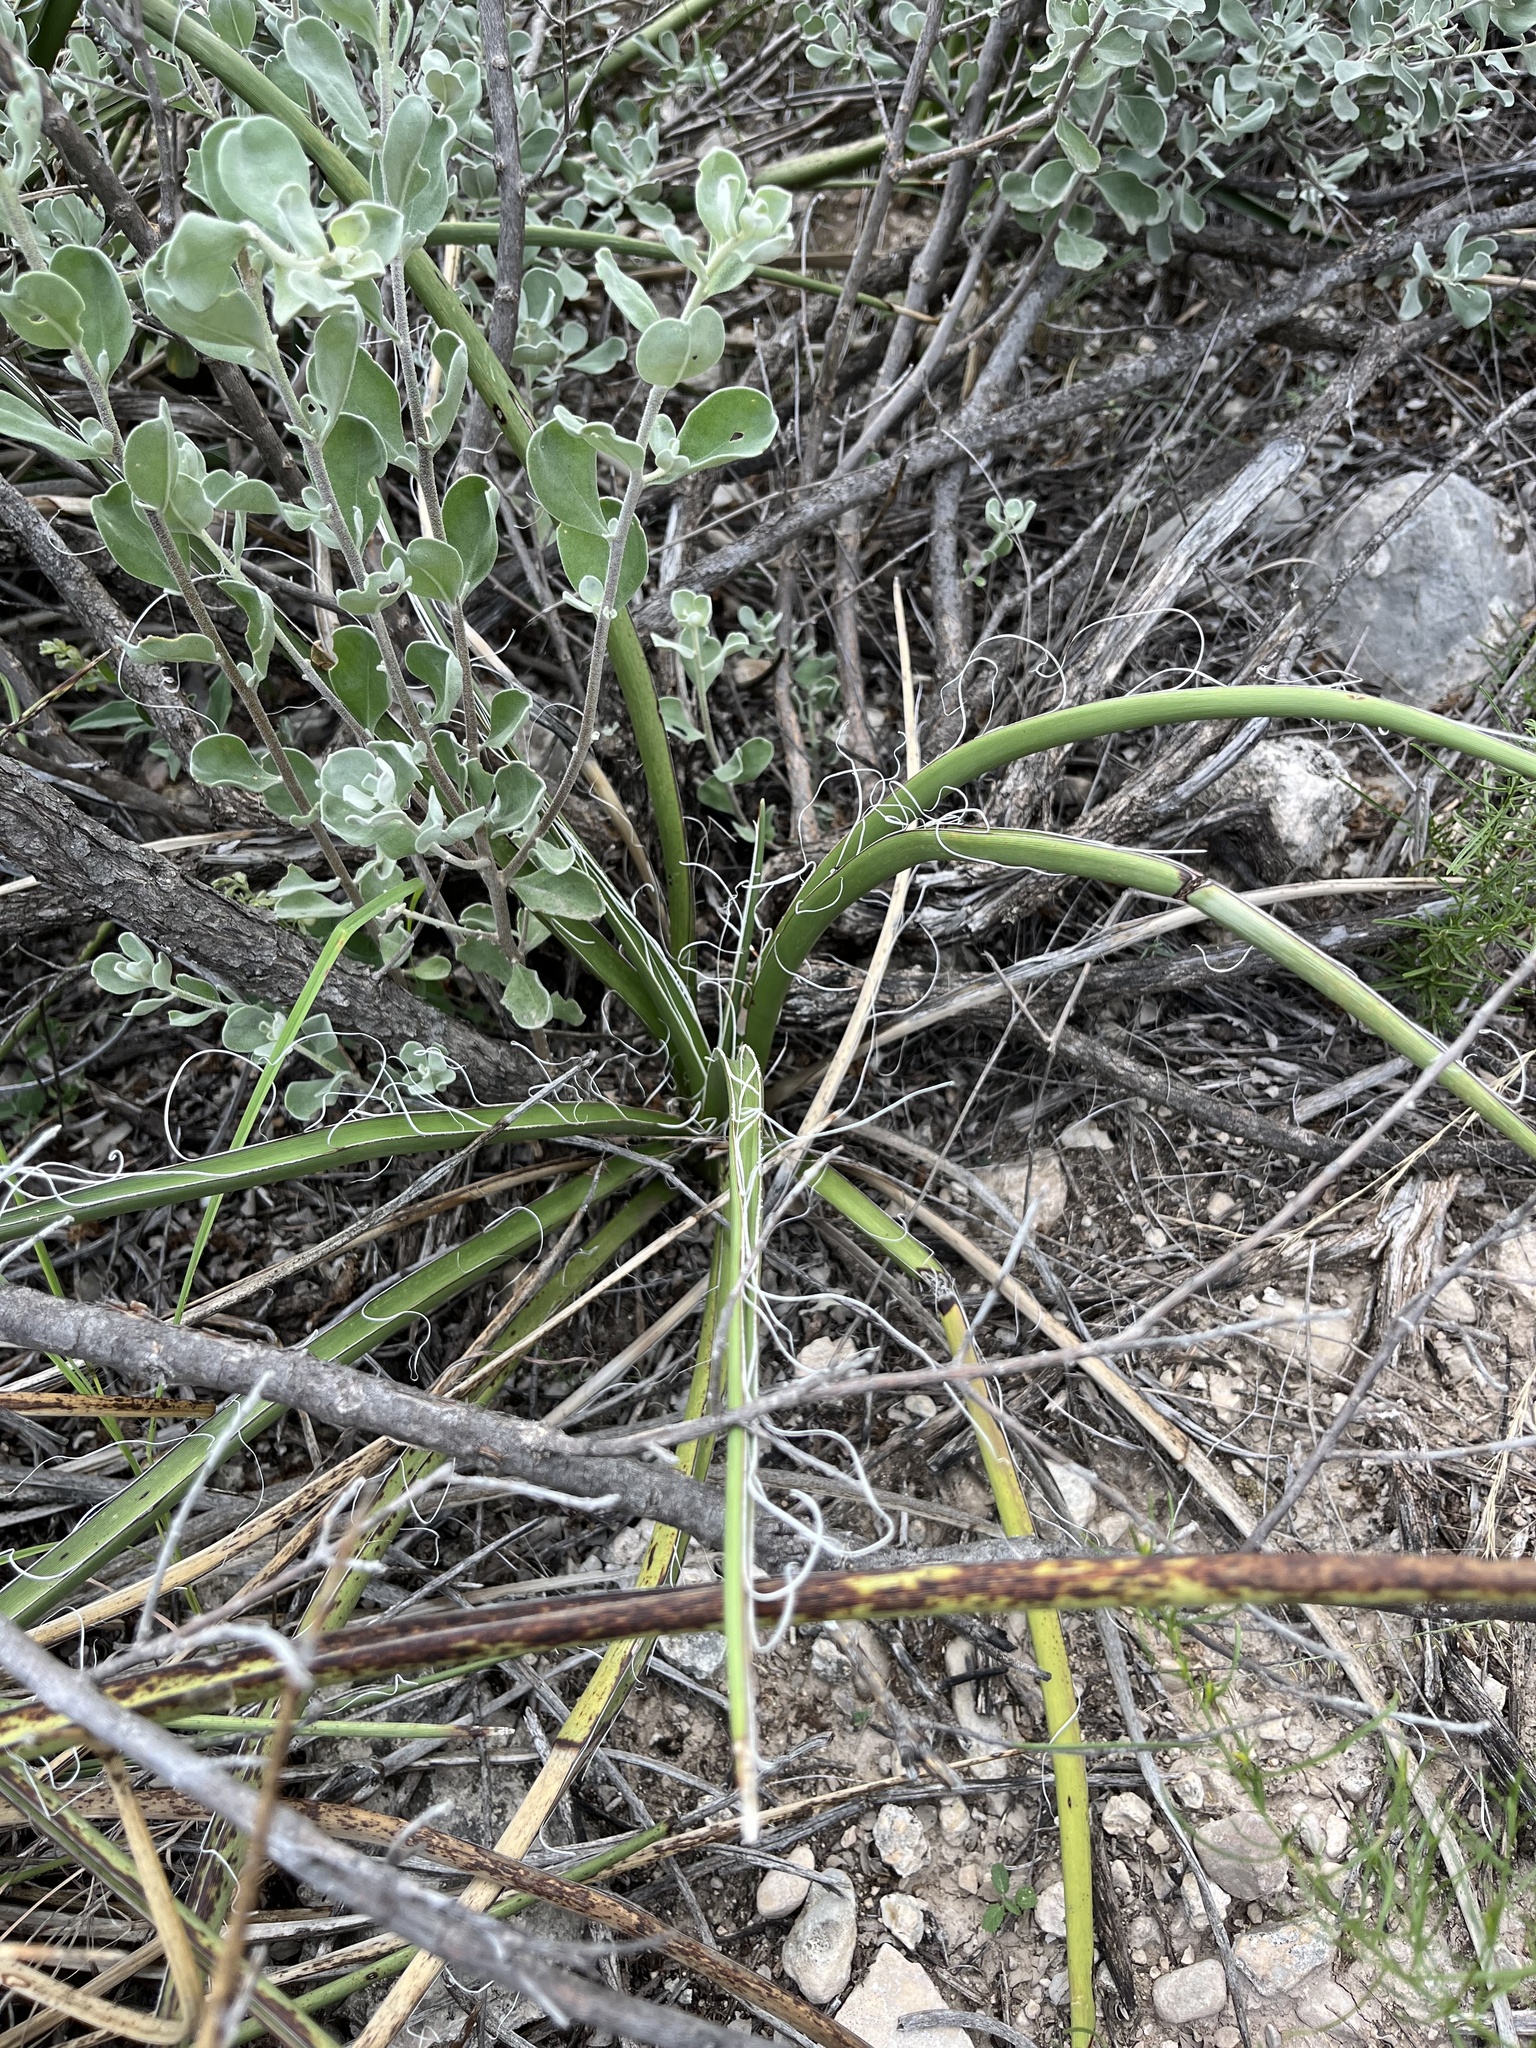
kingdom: Plantae
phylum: Tracheophyta
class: Liliopsida
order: Asparagales
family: Asparagaceae
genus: Hesperaloe
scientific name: Hesperaloe parviflora
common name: Red hesperaloe
